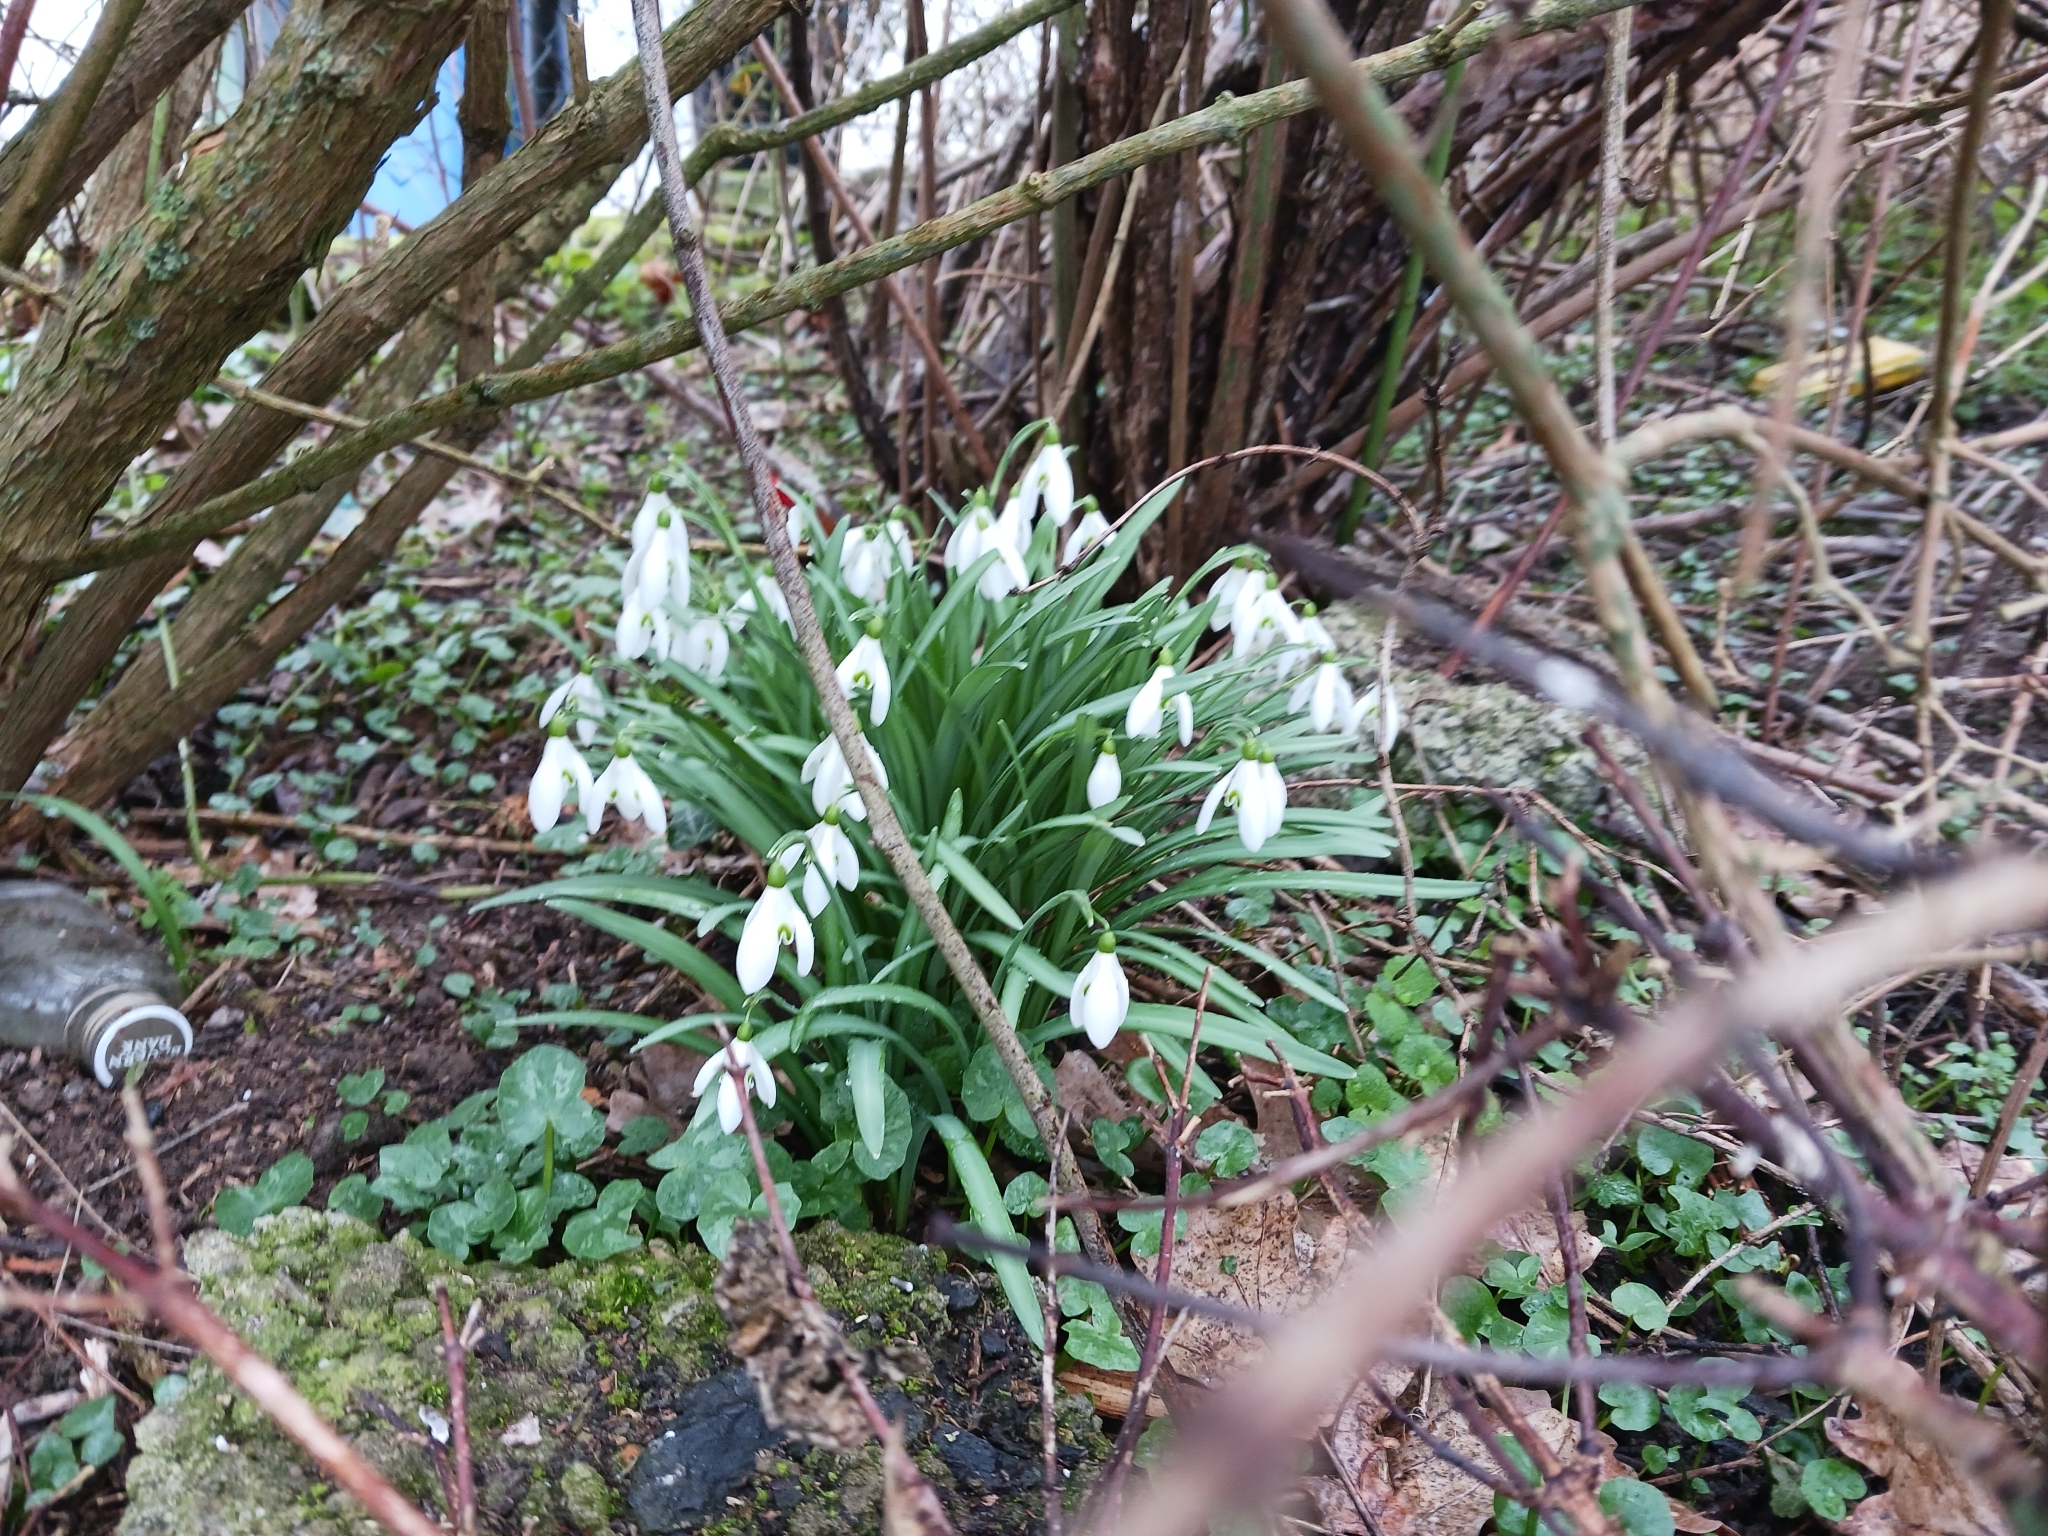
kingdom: Plantae
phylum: Tracheophyta
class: Liliopsida
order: Asparagales
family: Amaryllidaceae
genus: Galanthus
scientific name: Galanthus nivalis
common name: Snowdrop
